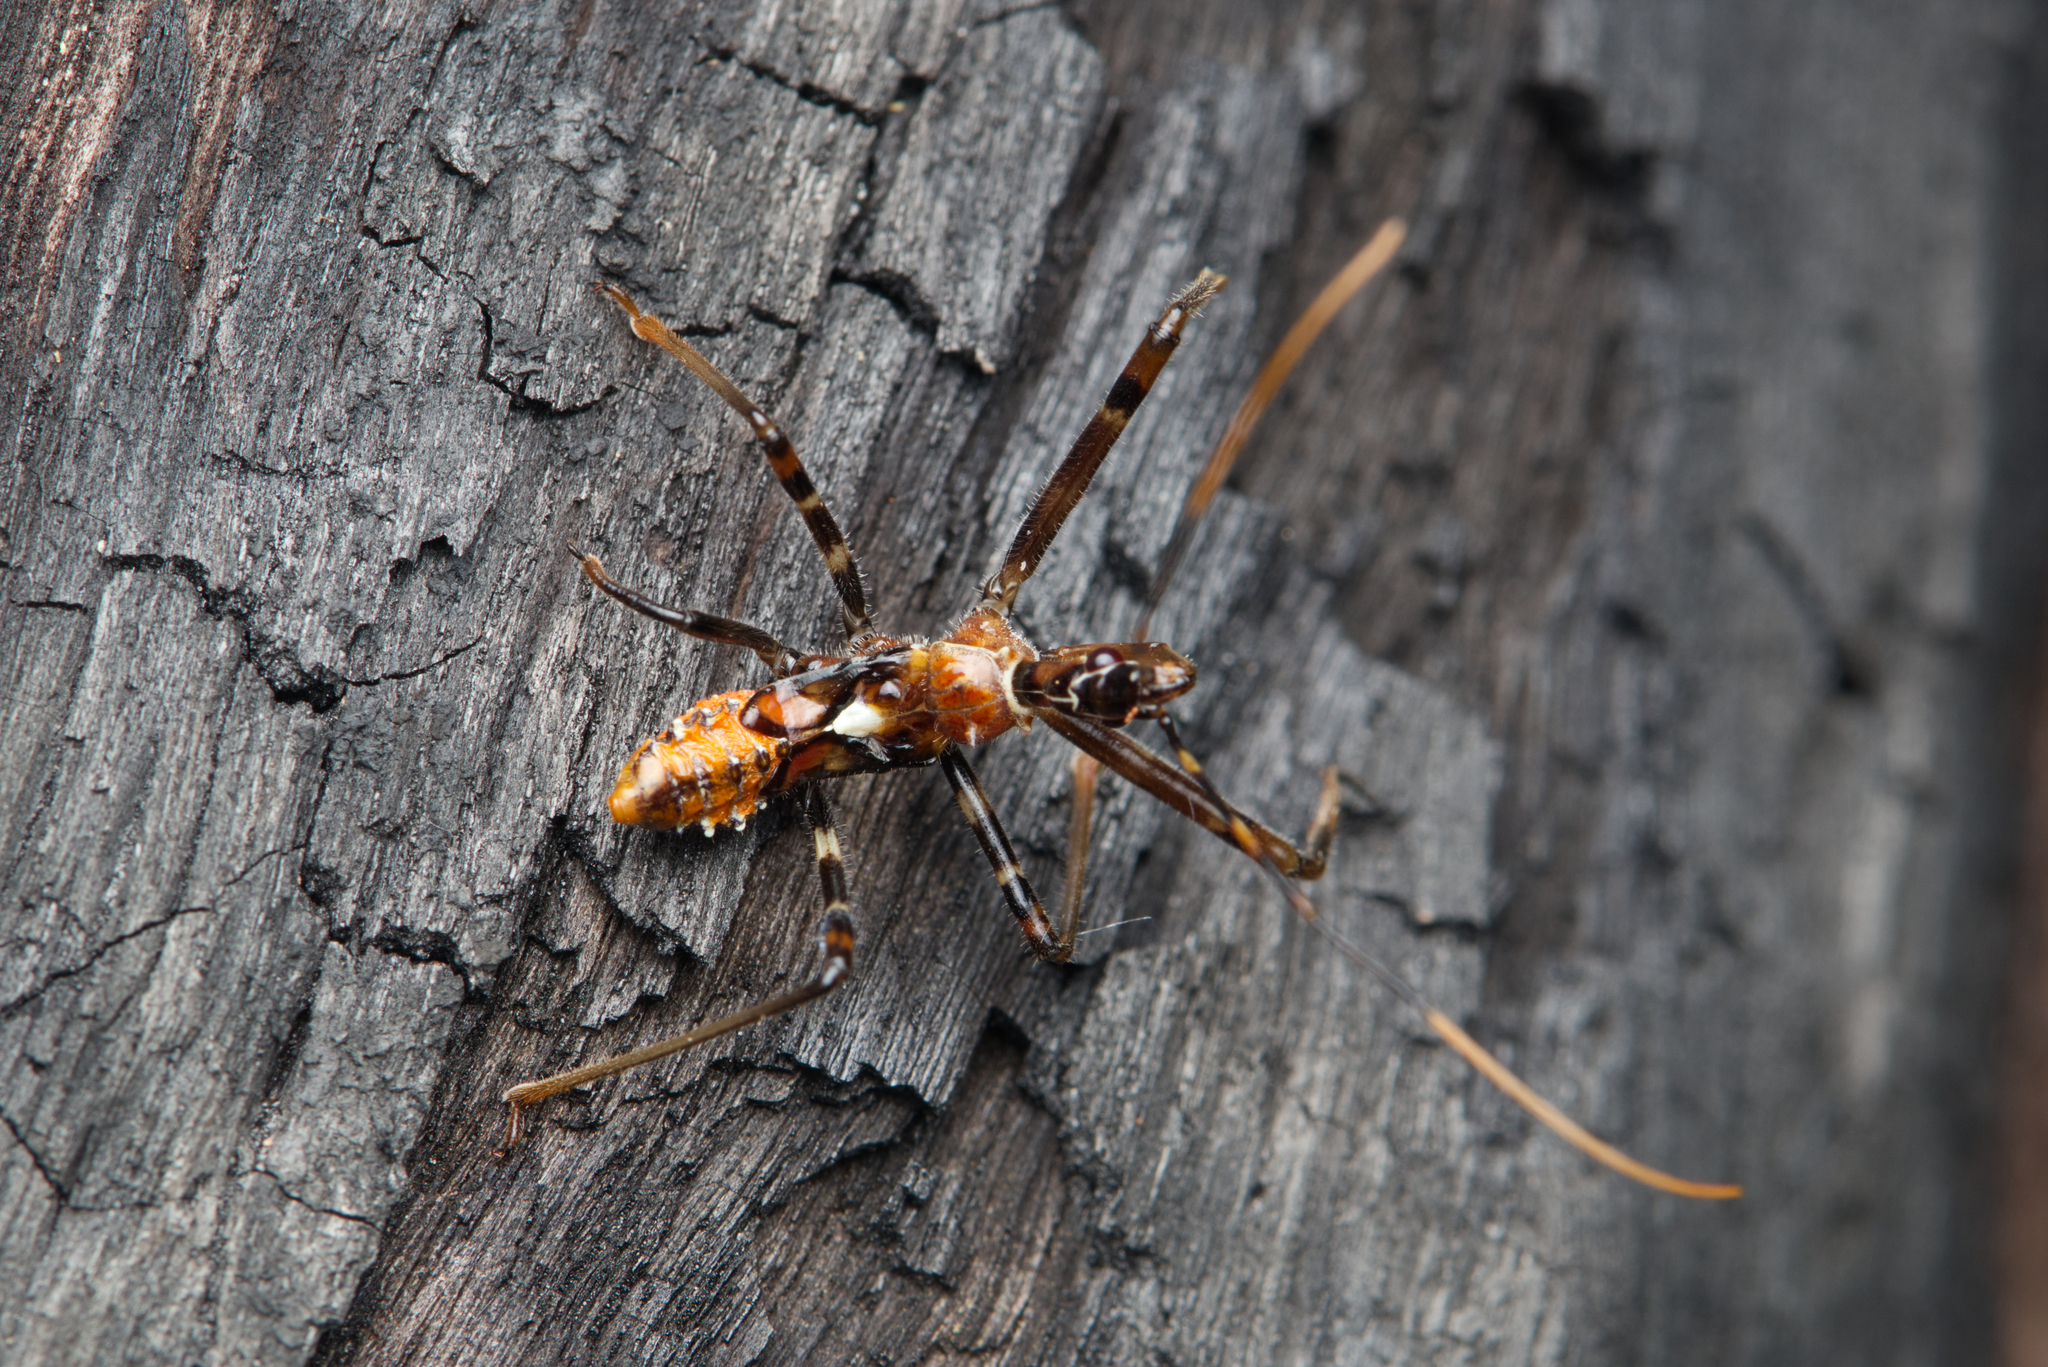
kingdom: Animalia
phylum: Arthropoda
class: Insecta
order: Hemiptera
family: Reduviidae
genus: Pristhesancus
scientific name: Pristhesancus plagipennis
